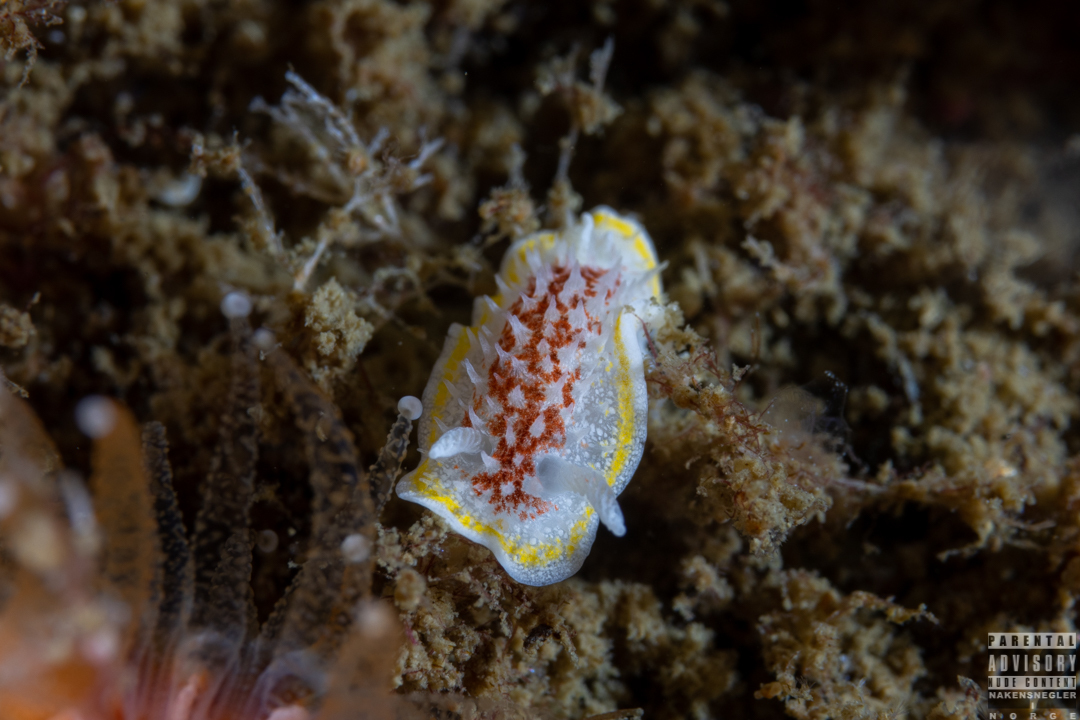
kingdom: Animalia
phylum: Mollusca
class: Gastropoda
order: Nudibranchia
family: Calycidorididae
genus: Diaphorodoris
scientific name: Diaphorodoris luteocincta
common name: Fried egg nudibranch
